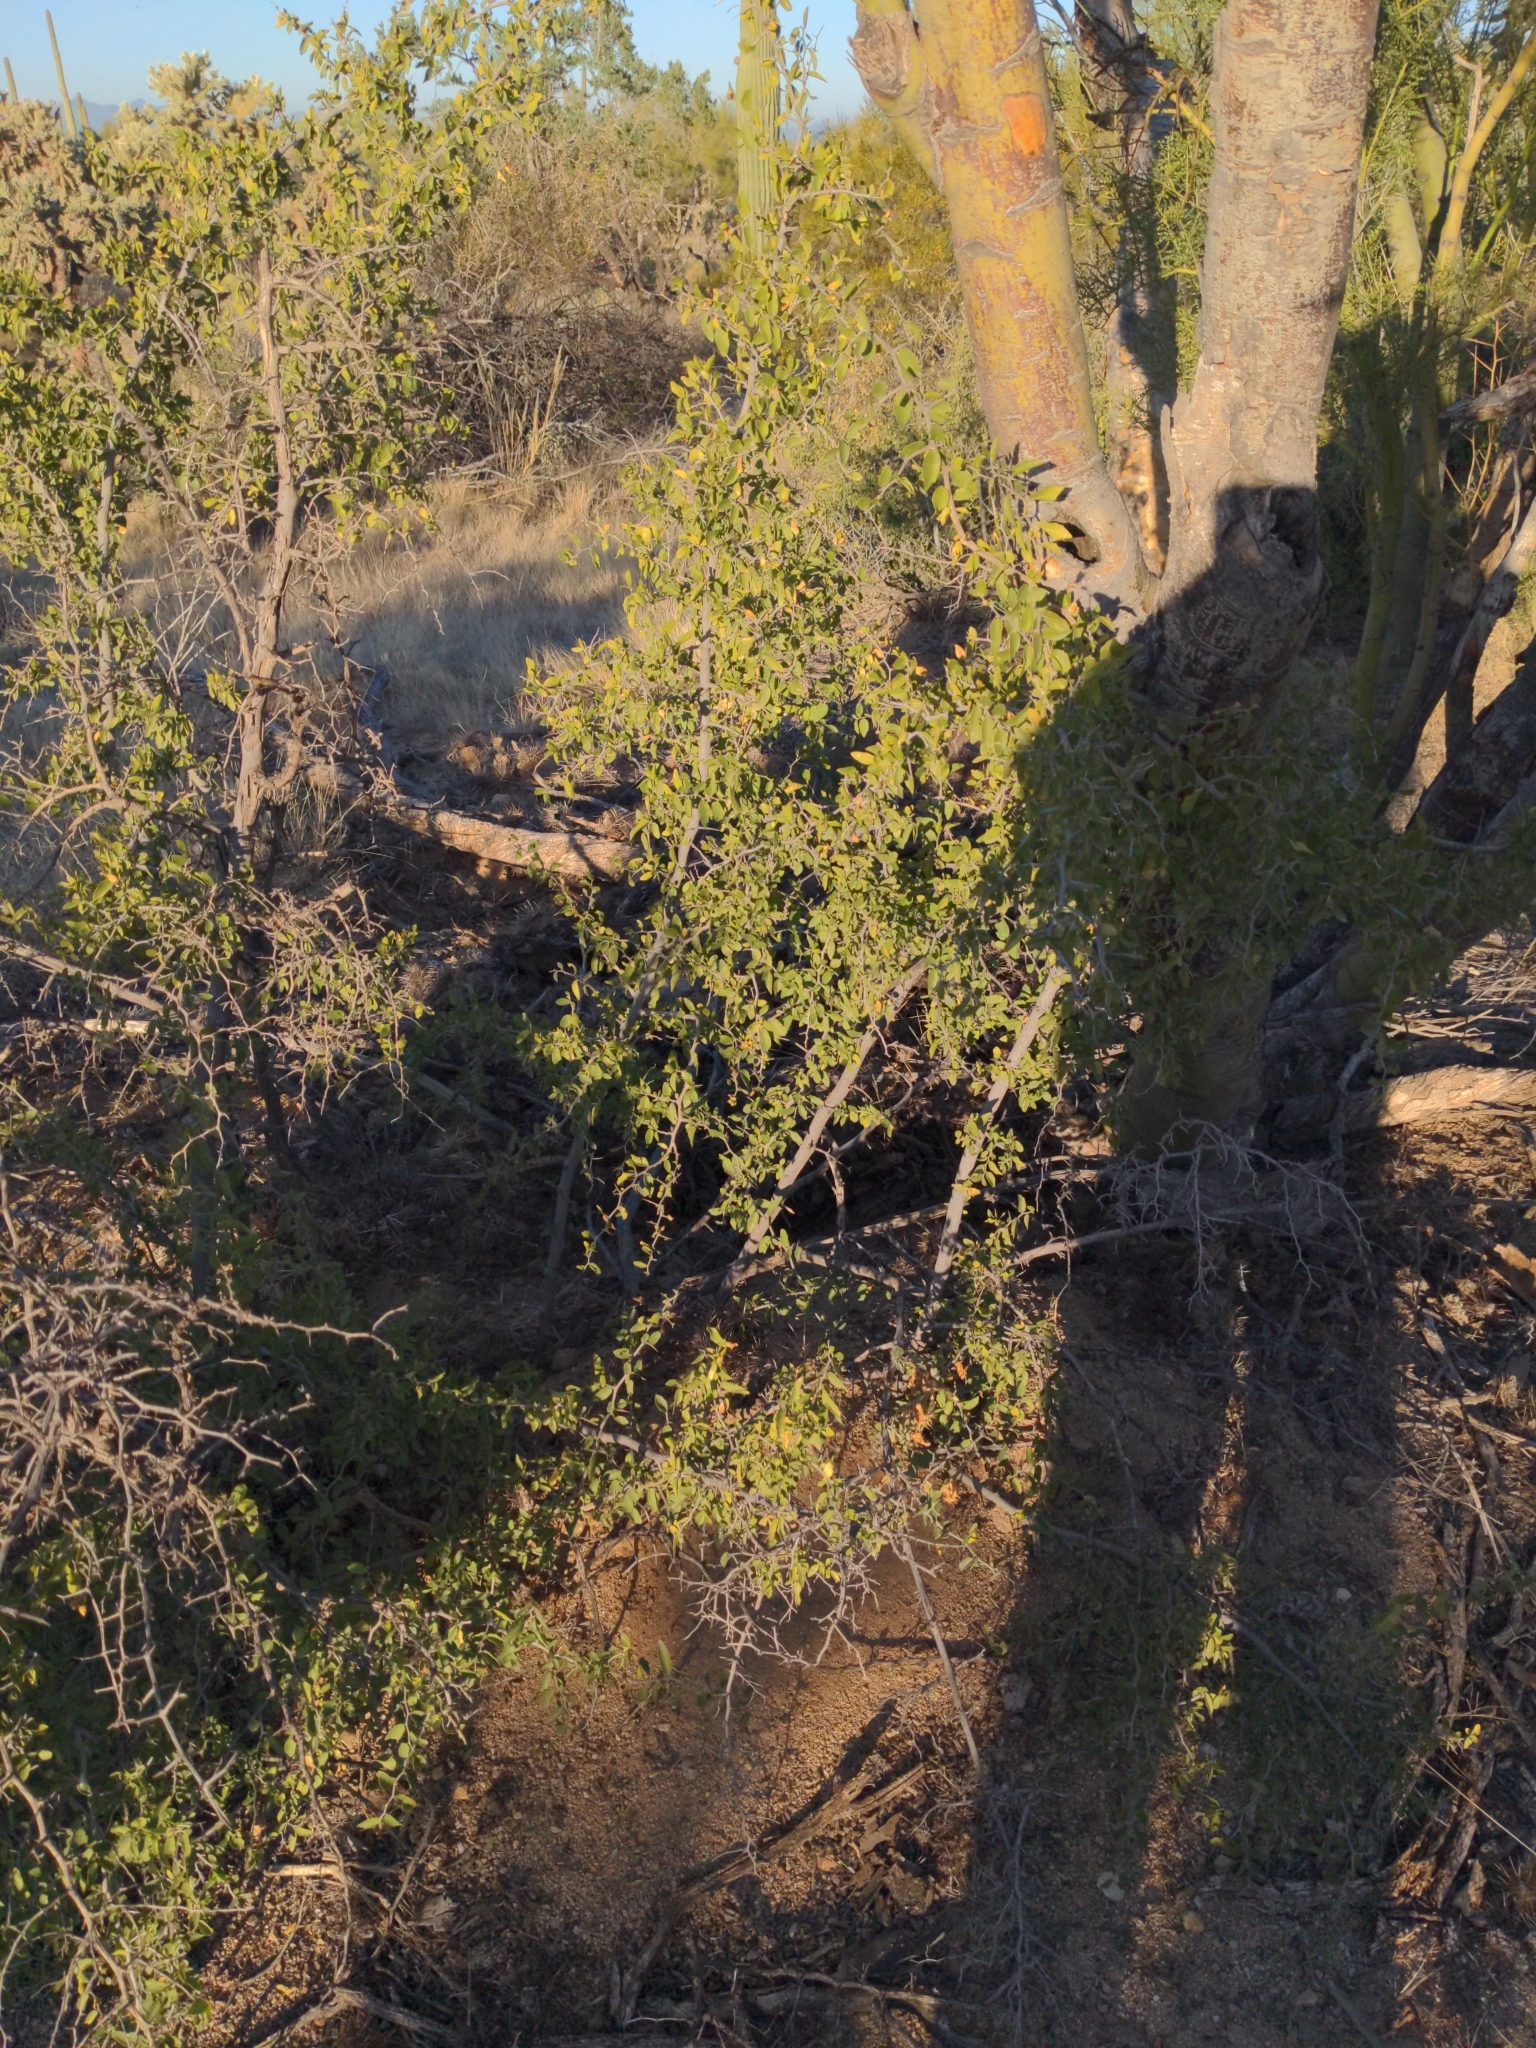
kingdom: Plantae
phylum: Tracheophyta
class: Magnoliopsida
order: Rosales
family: Cannabaceae
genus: Celtis
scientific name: Celtis pallida
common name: Desert hackberry
